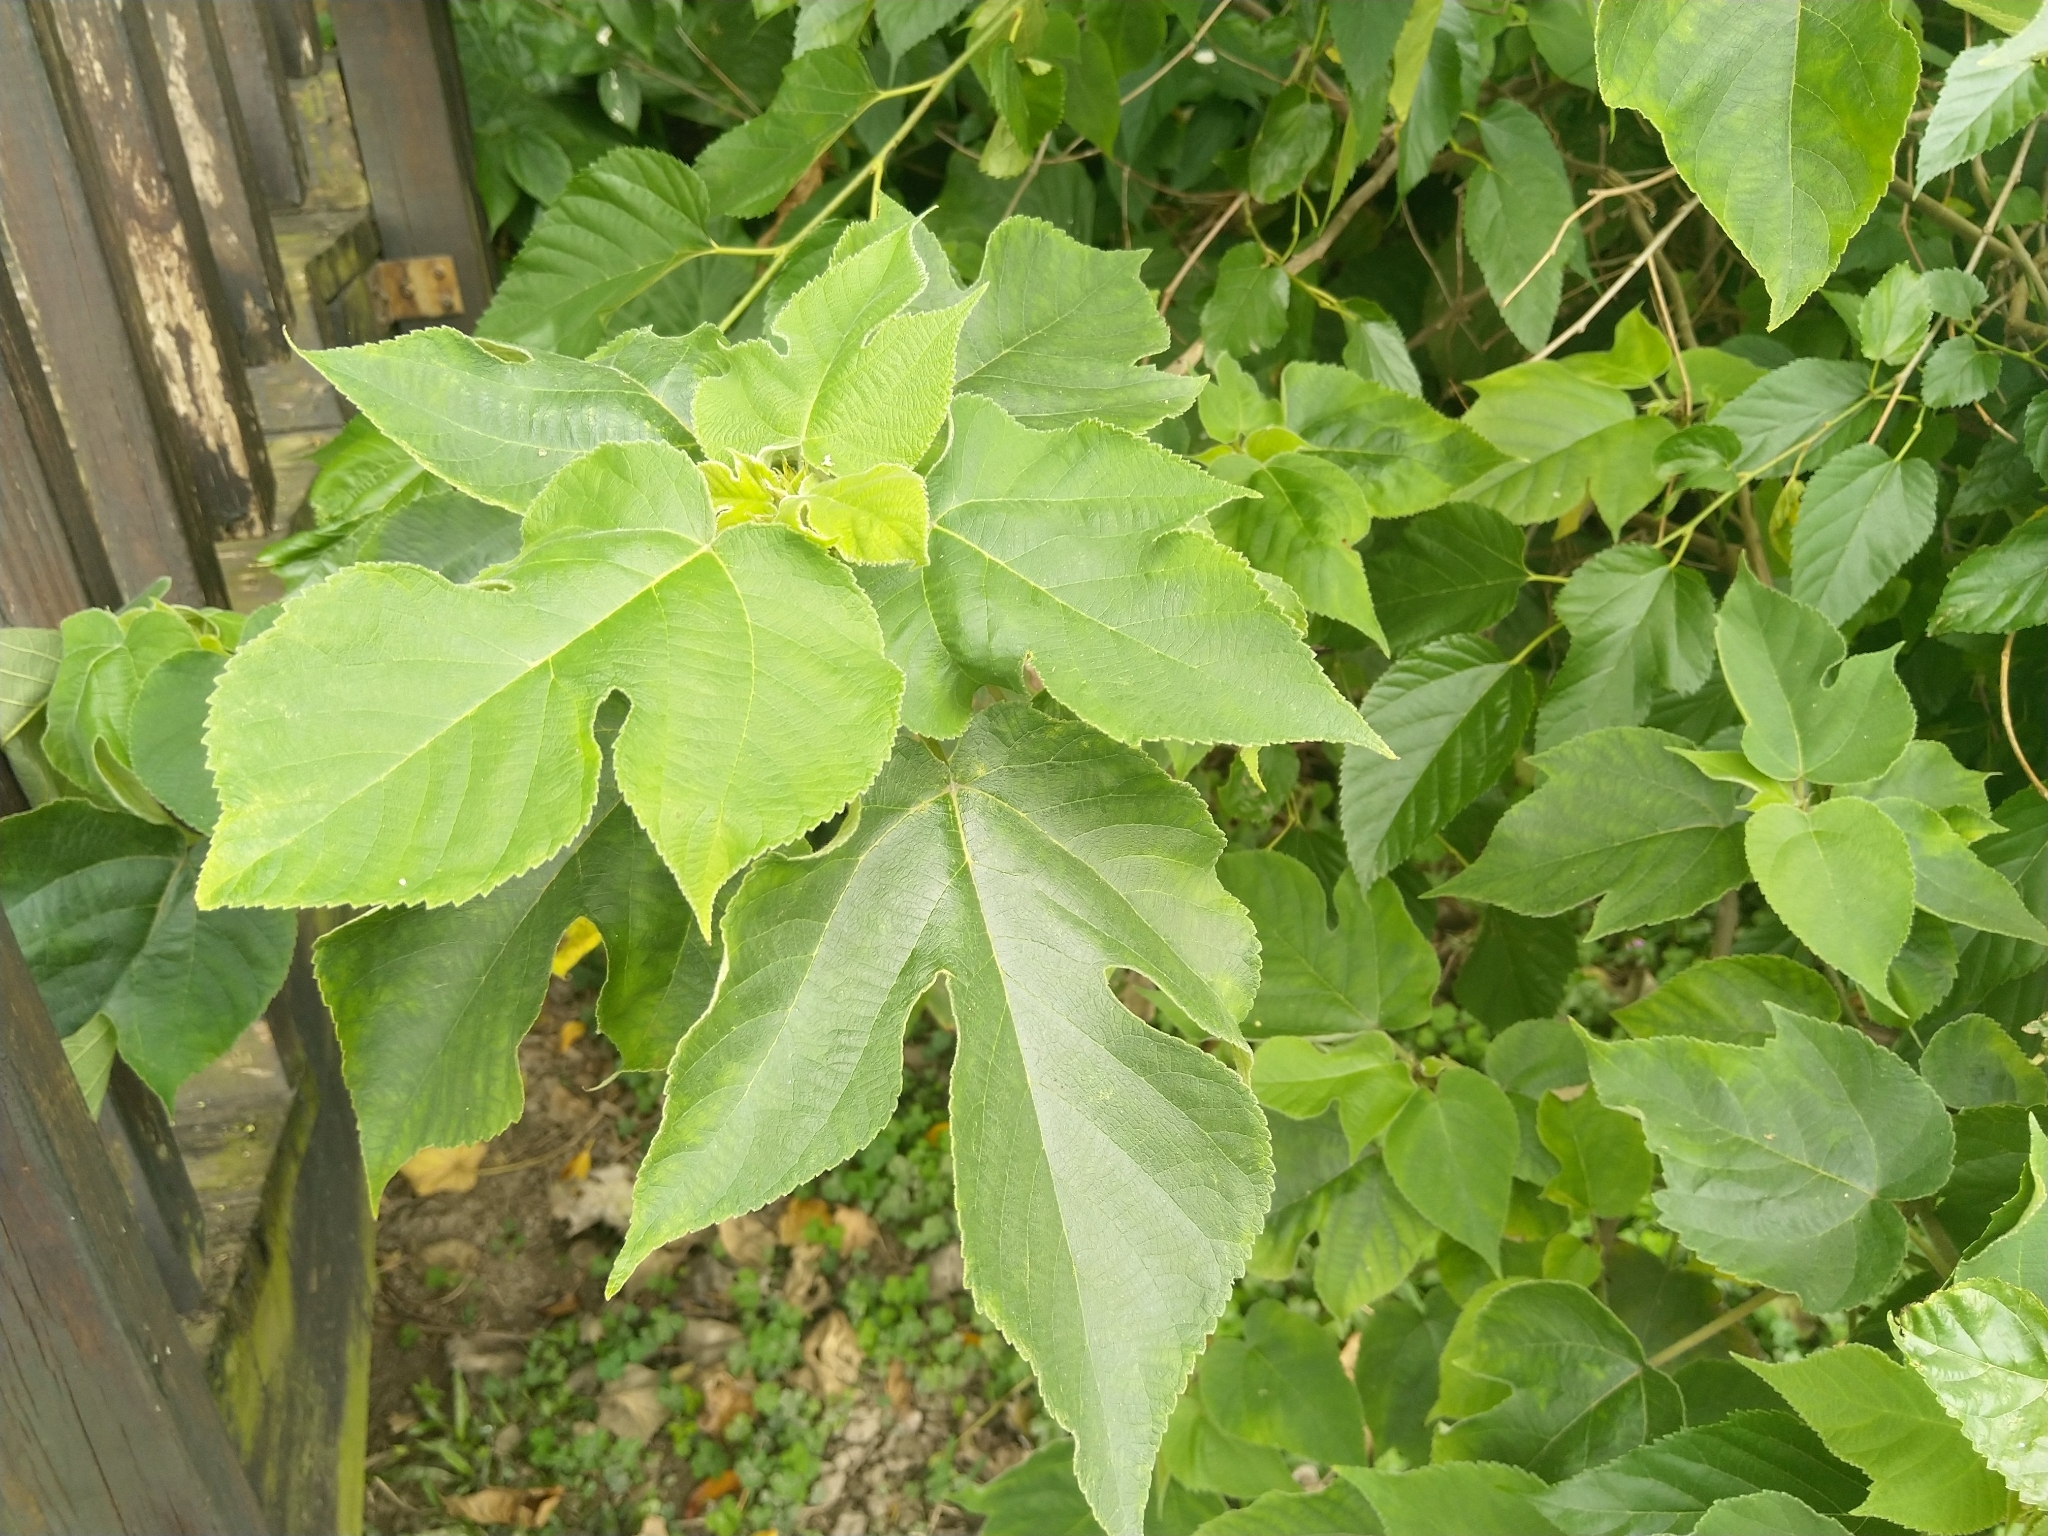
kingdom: Plantae
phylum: Tracheophyta
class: Magnoliopsida
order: Rosales
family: Moraceae
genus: Broussonetia
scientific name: Broussonetia papyrifera
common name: Paper mulberry
